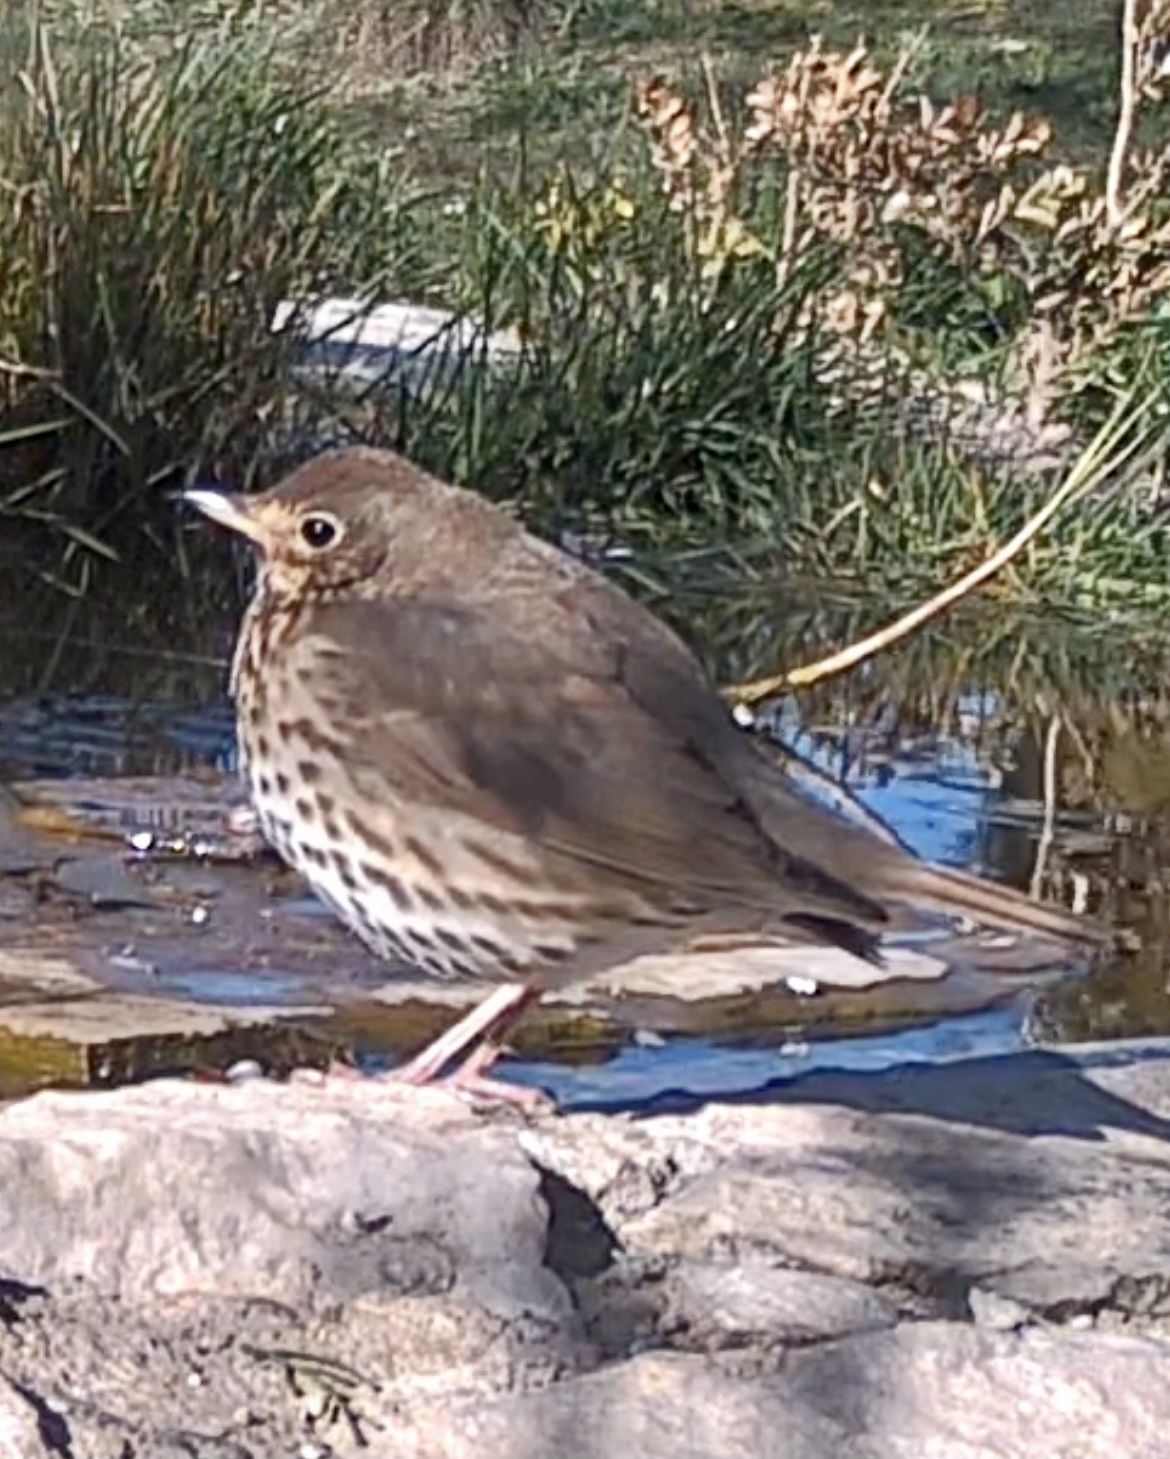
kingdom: Animalia
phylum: Chordata
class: Aves
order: Passeriformes
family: Turdidae
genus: Turdus
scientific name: Turdus philomelos
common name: Song thrush
